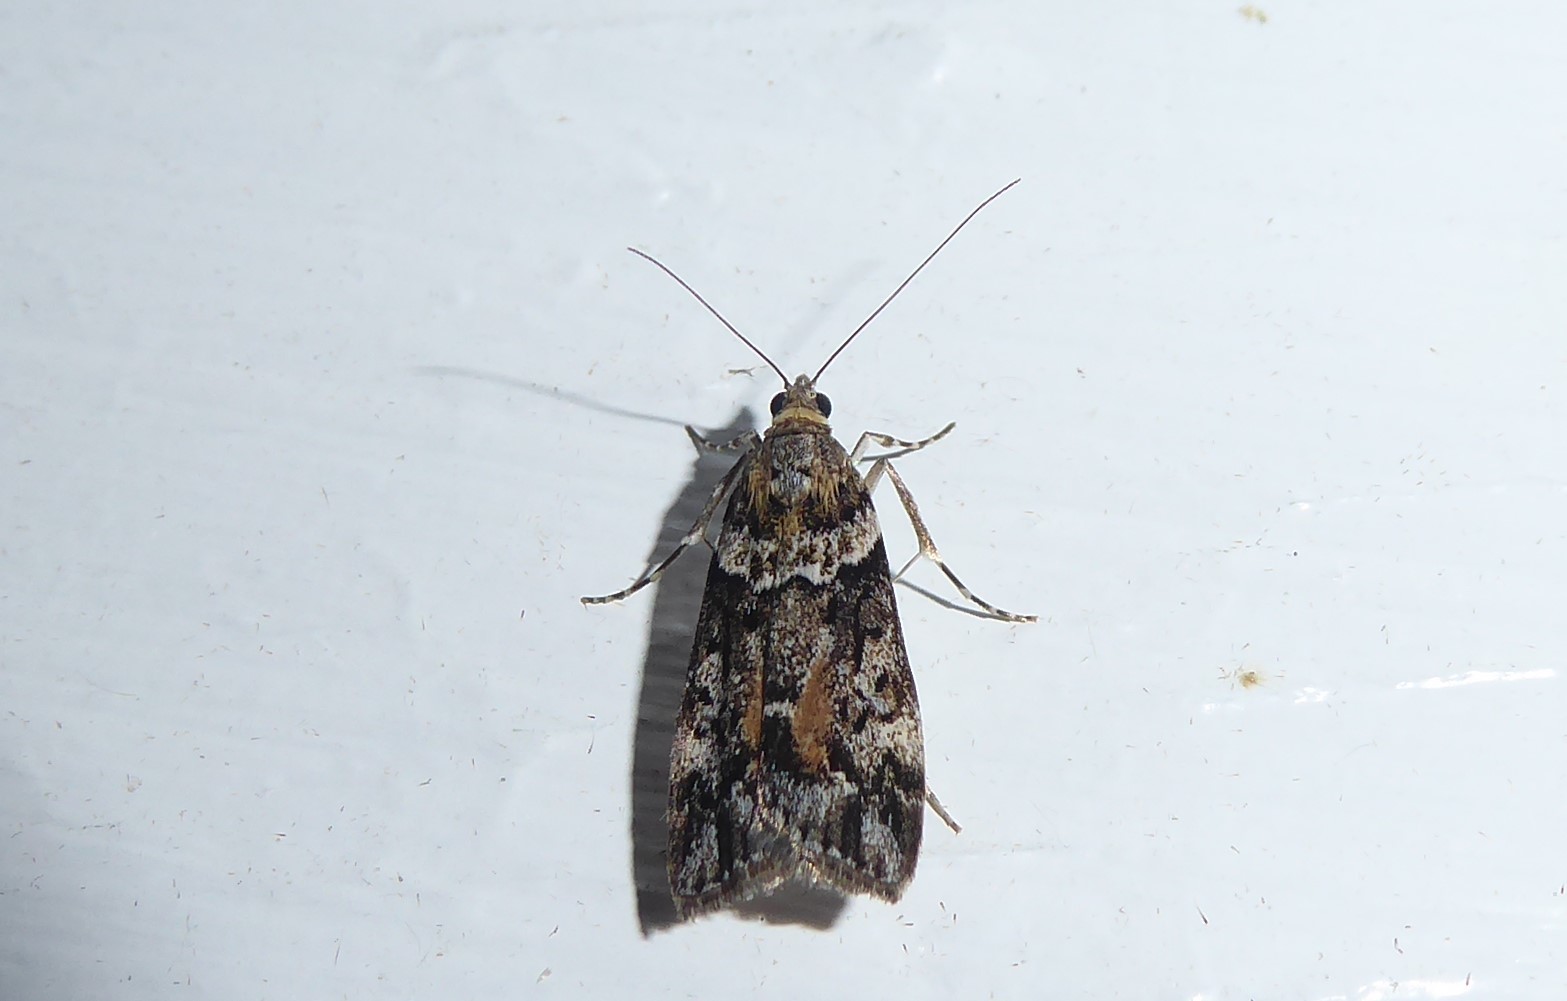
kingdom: Animalia
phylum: Arthropoda
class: Insecta
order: Lepidoptera
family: Crambidae
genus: Eudonia
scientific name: Eudonia submarginalis
